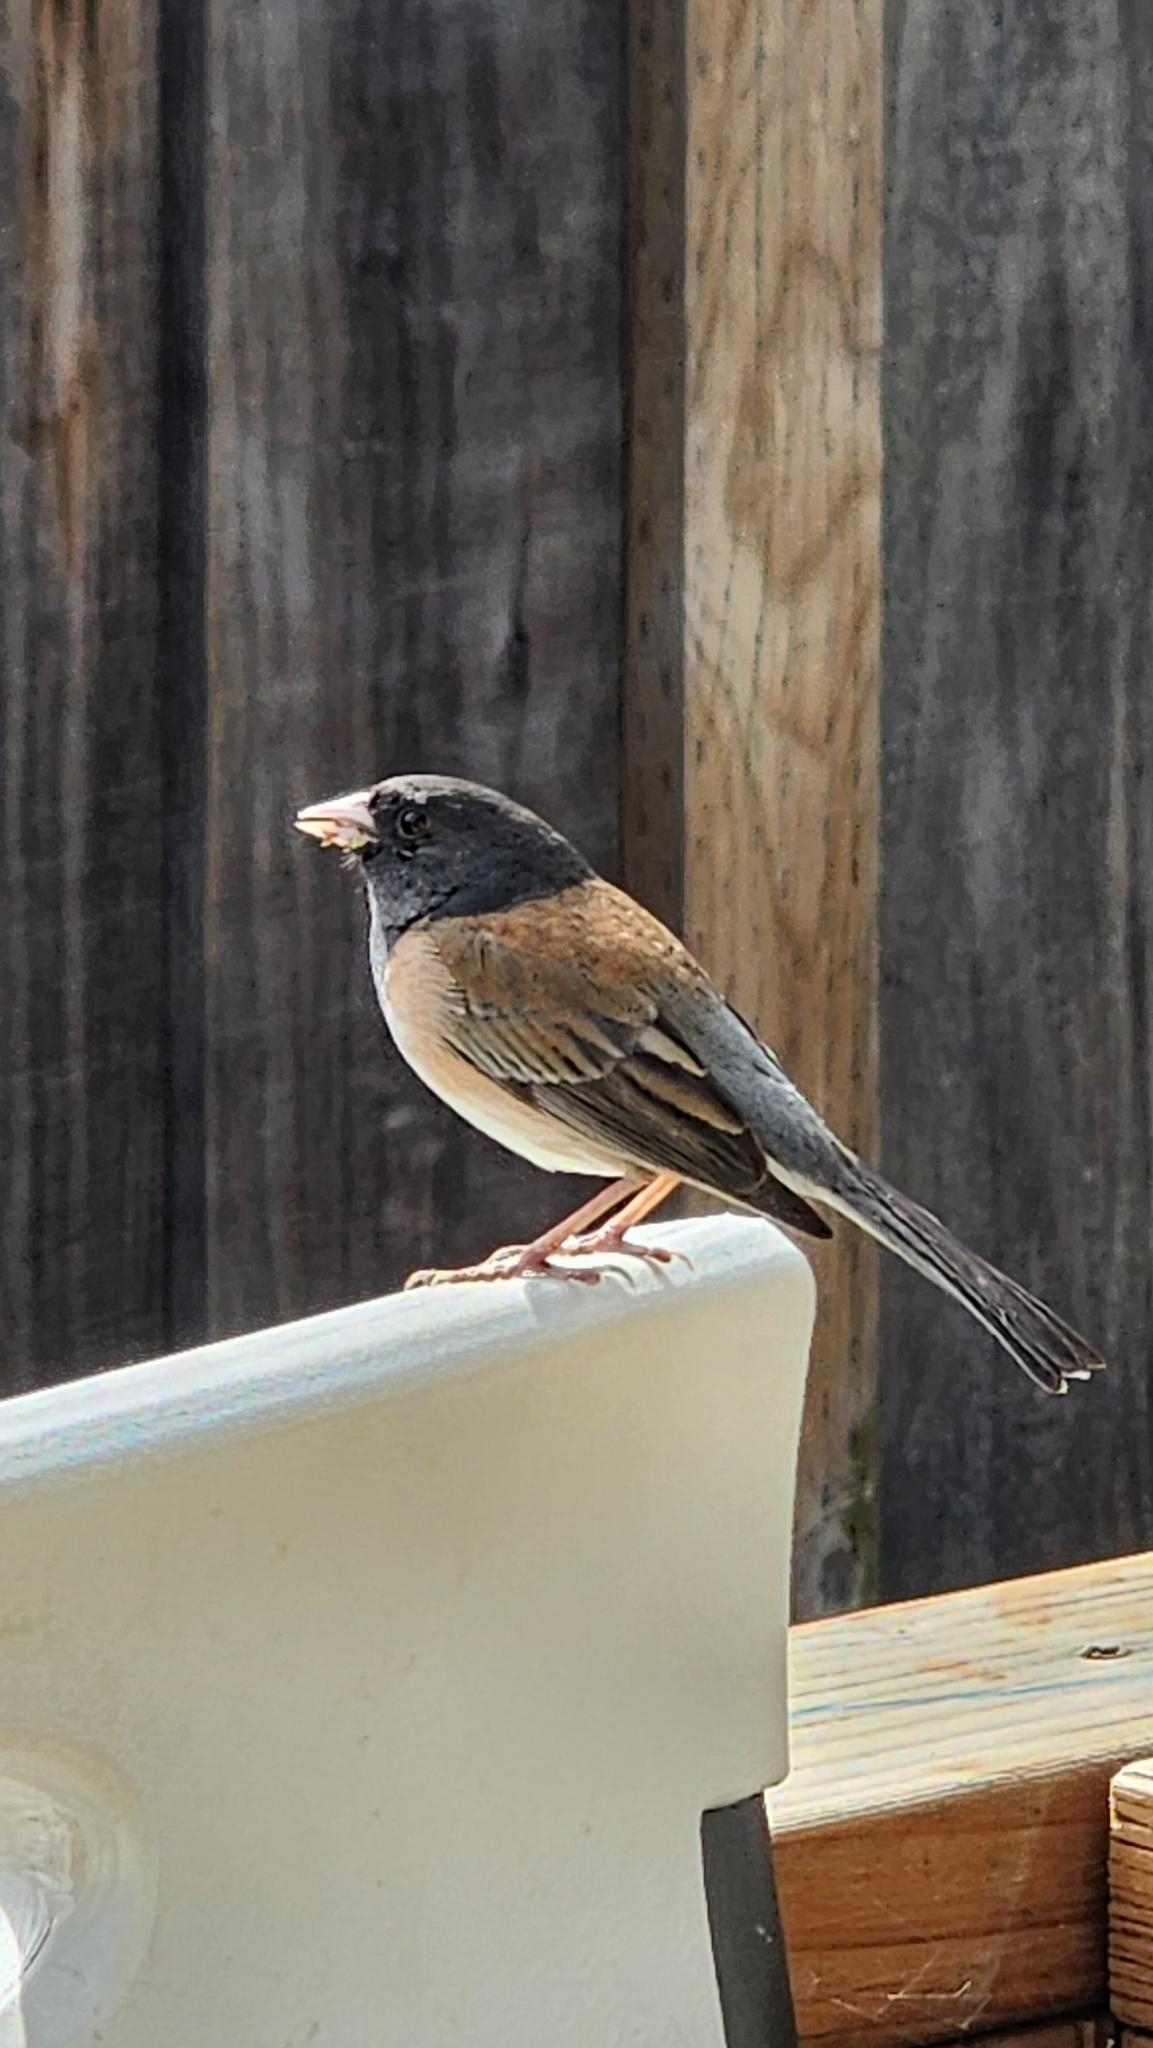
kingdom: Animalia
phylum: Chordata
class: Aves
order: Passeriformes
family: Passerellidae
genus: Junco
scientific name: Junco hyemalis
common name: Dark-eyed junco
